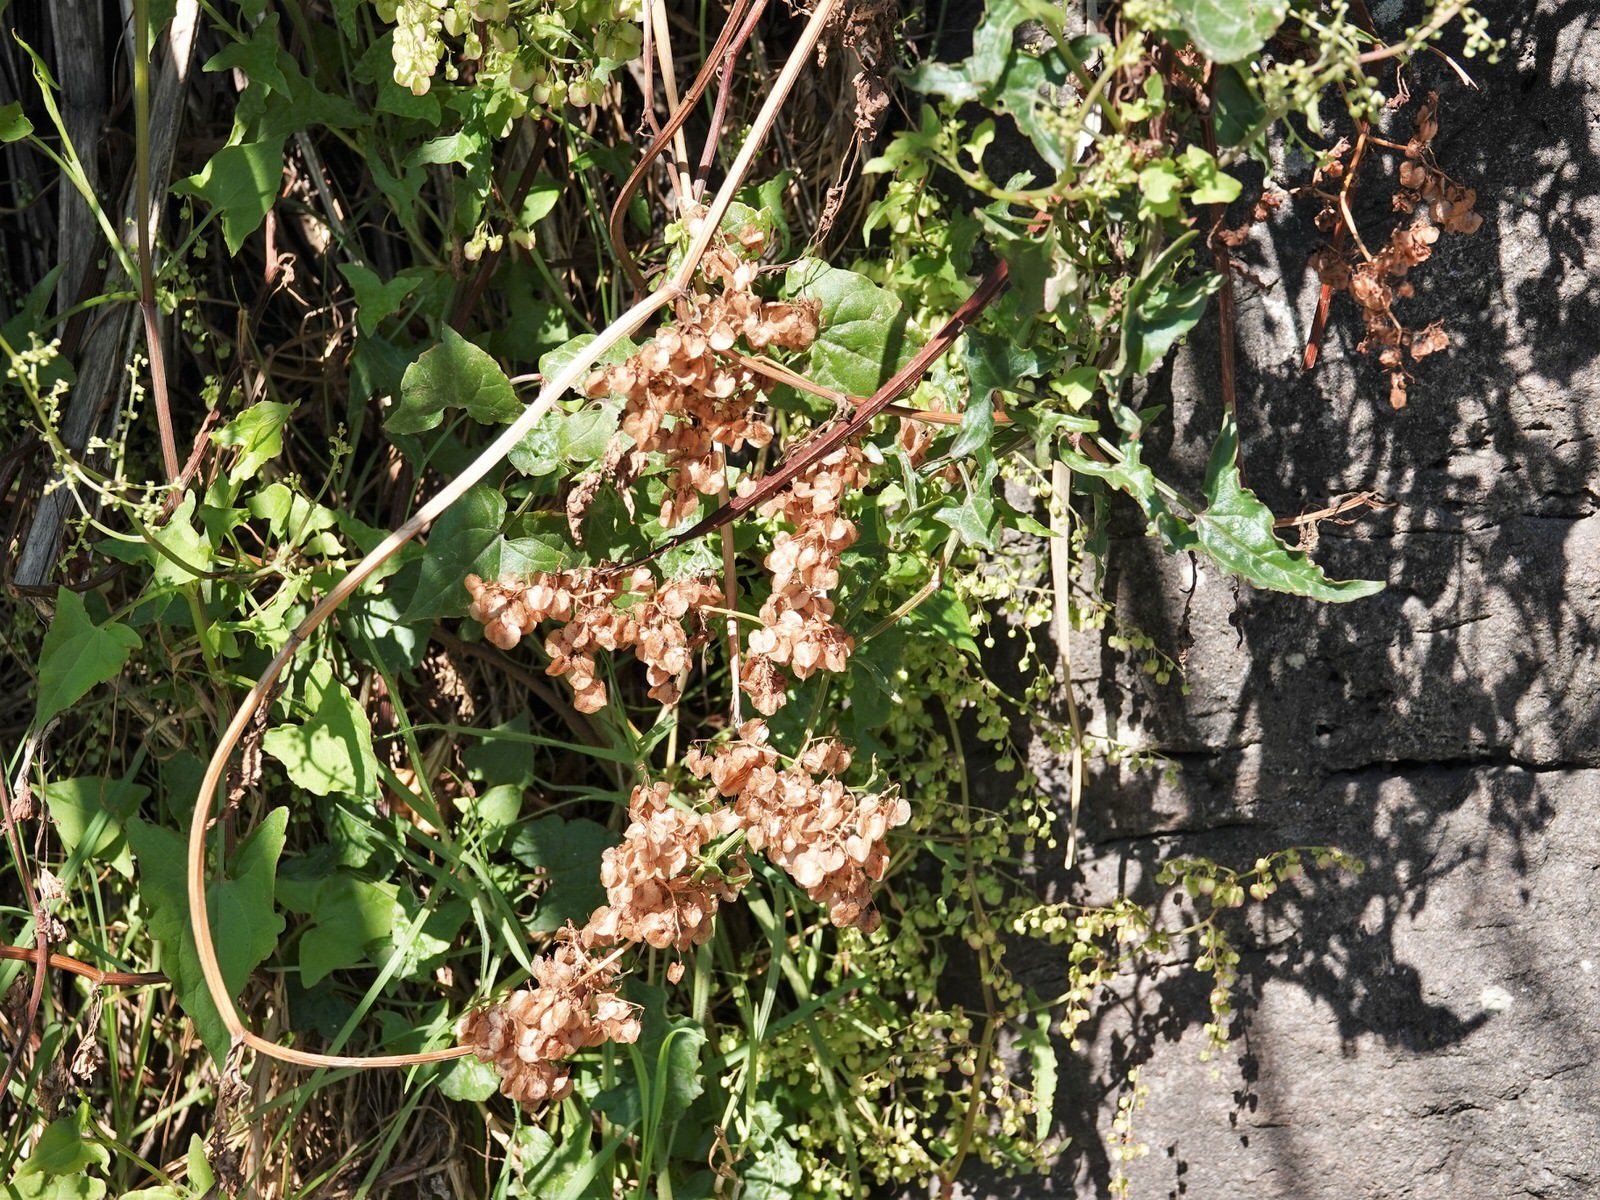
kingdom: Plantae
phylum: Tracheophyta
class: Magnoliopsida
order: Caryophyllales
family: Polygonaceae
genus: Rumex
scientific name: Rumex sagittatus
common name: Climbing dock
